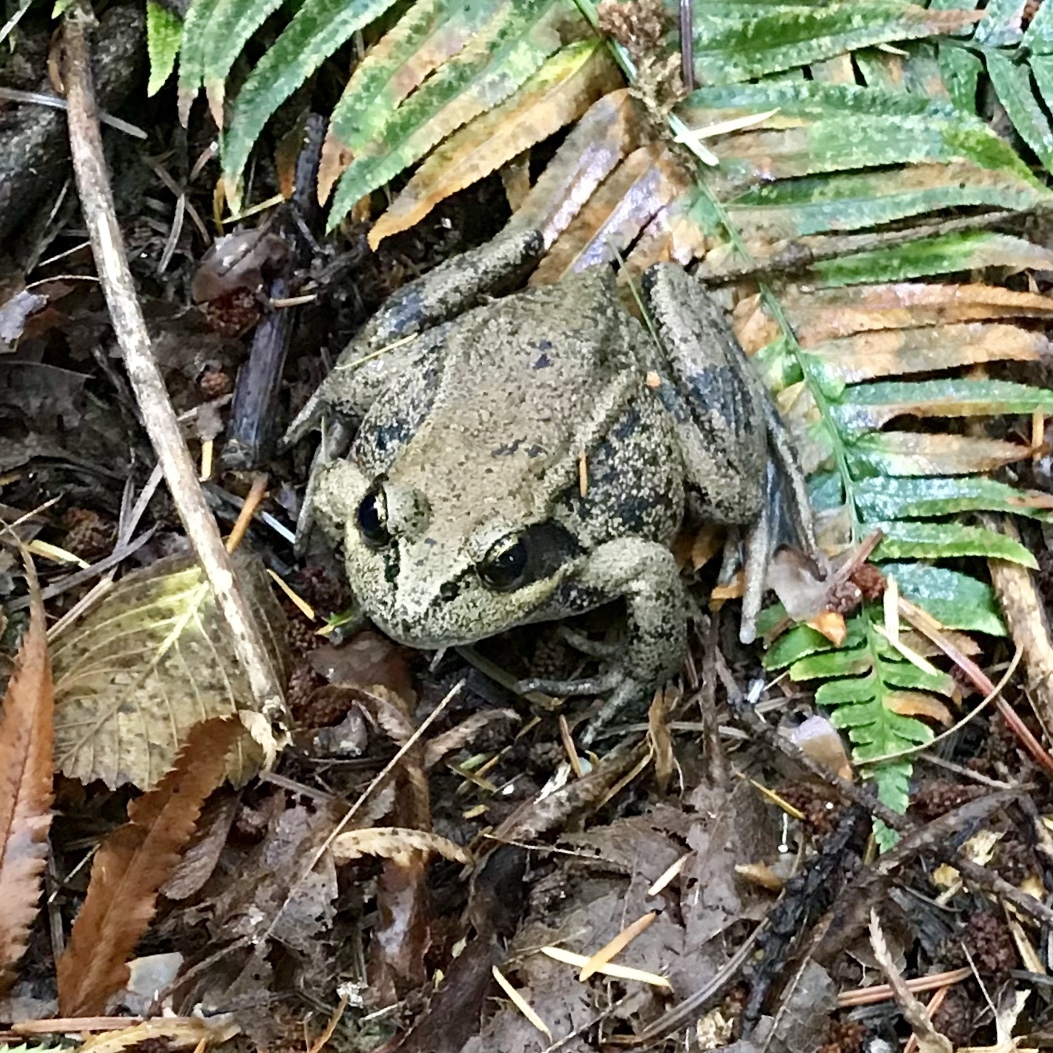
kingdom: Animalia
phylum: Chordata
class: Amphibia
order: Anura
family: Ranidae
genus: Rana
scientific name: Rana aurora
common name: Red-legged frog
